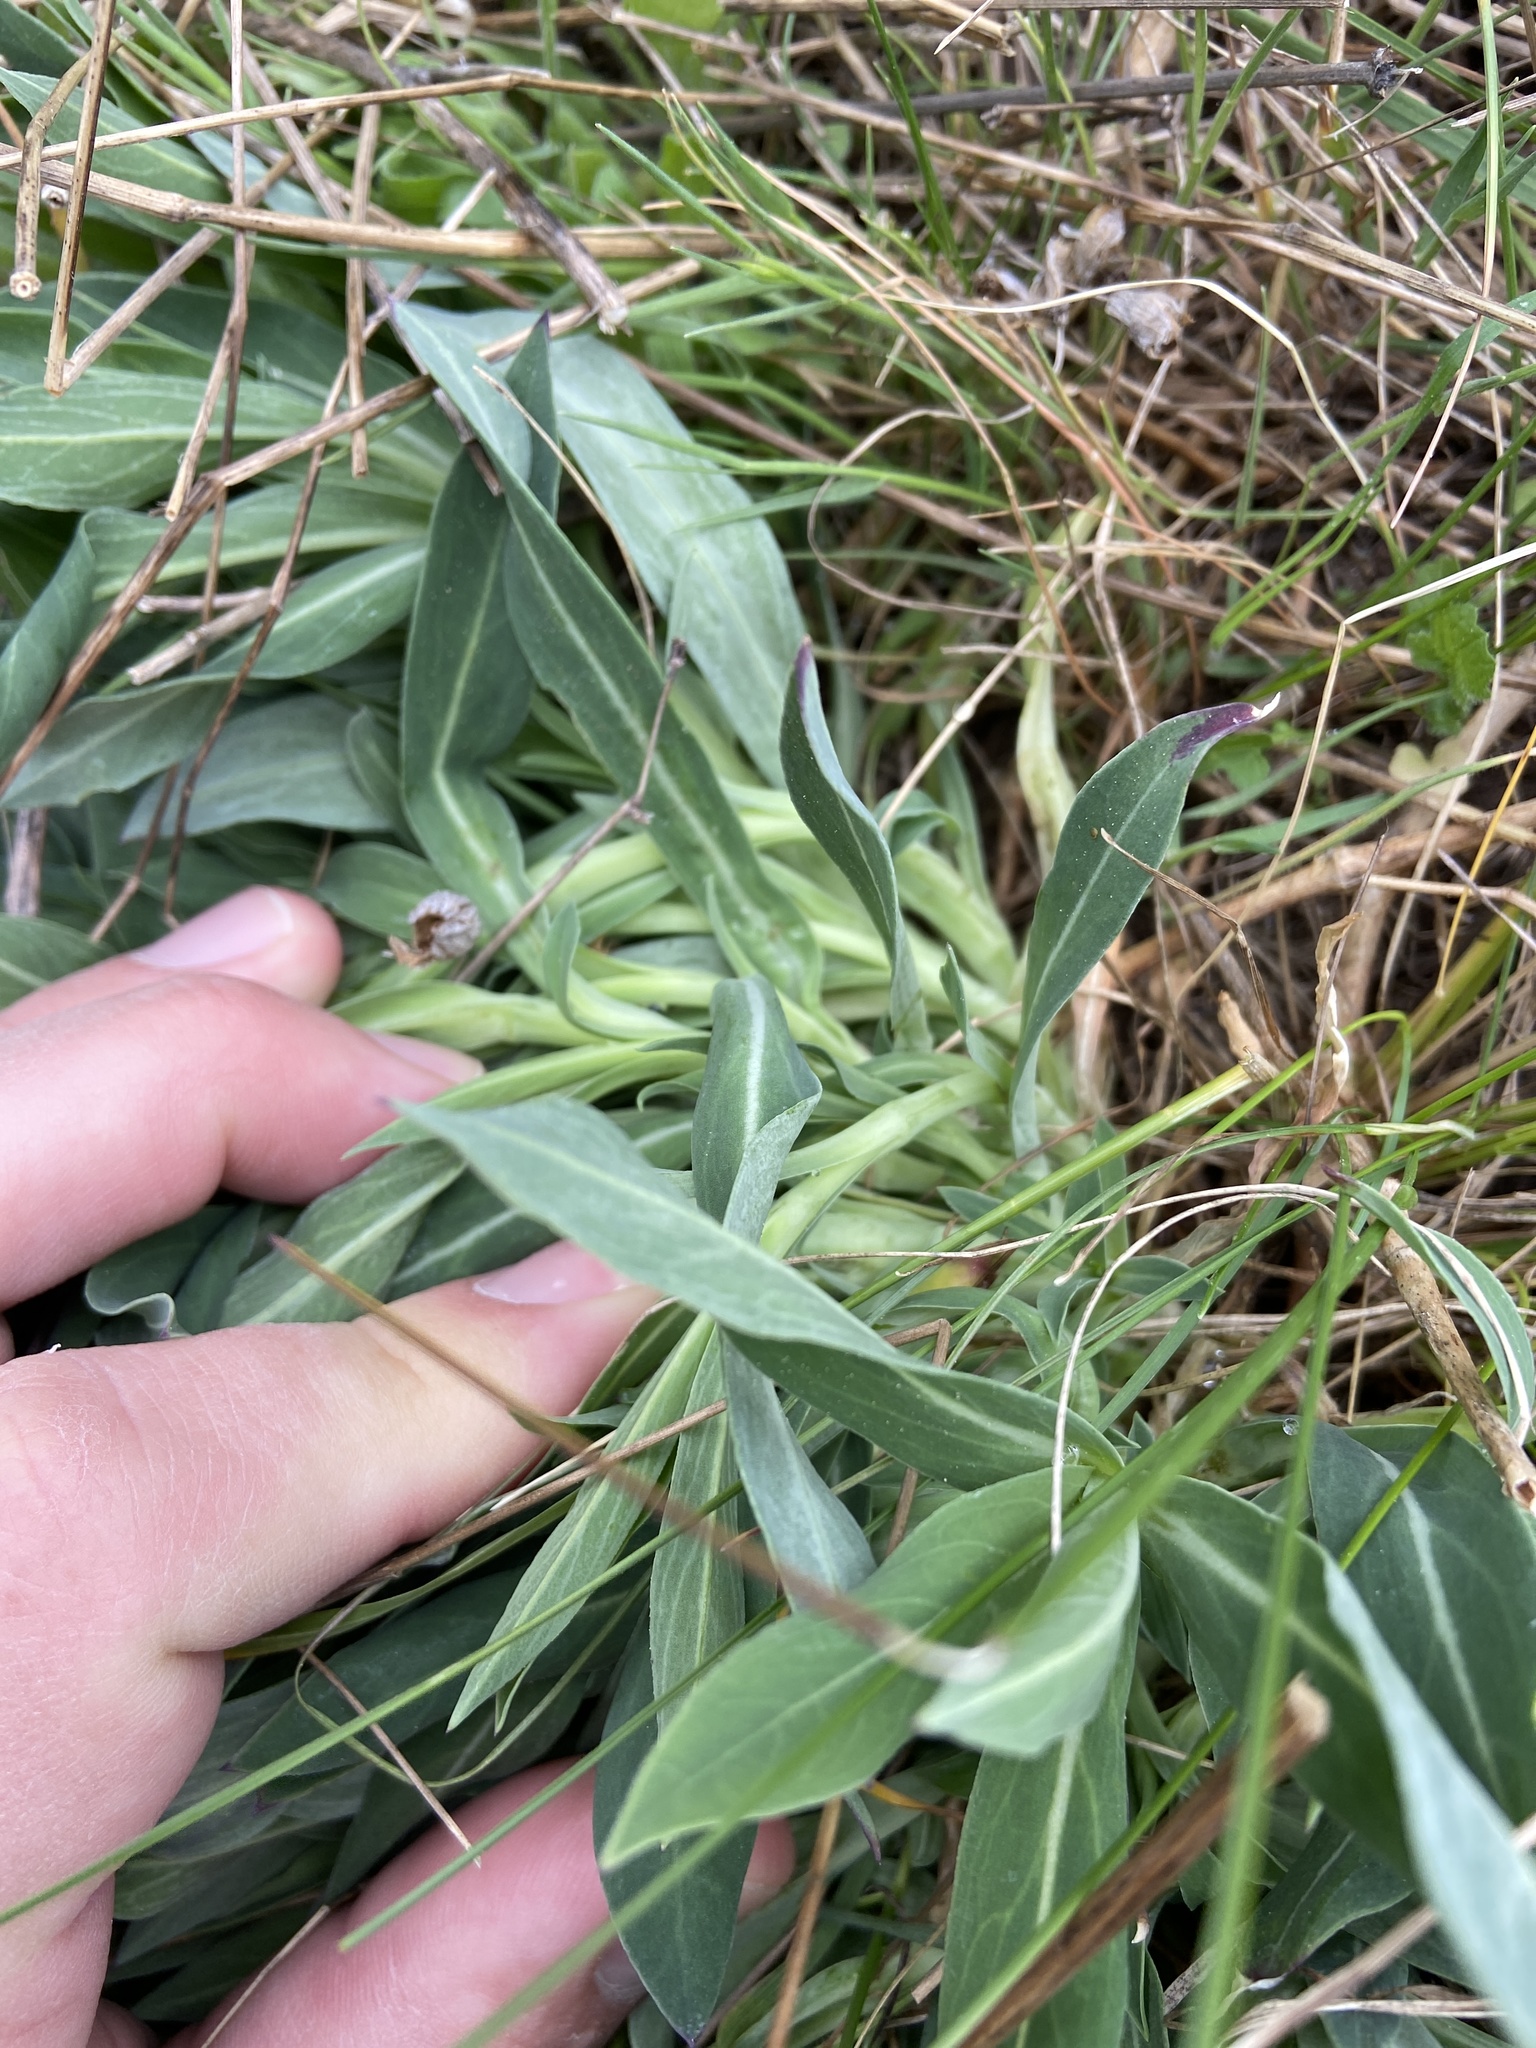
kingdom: Plantae
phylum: Tracheophyta
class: Magnoliopsida
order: Caryophyllales
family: Caryophyllaceae
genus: Silene
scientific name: Silene vulgaris
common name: Bladder campion
